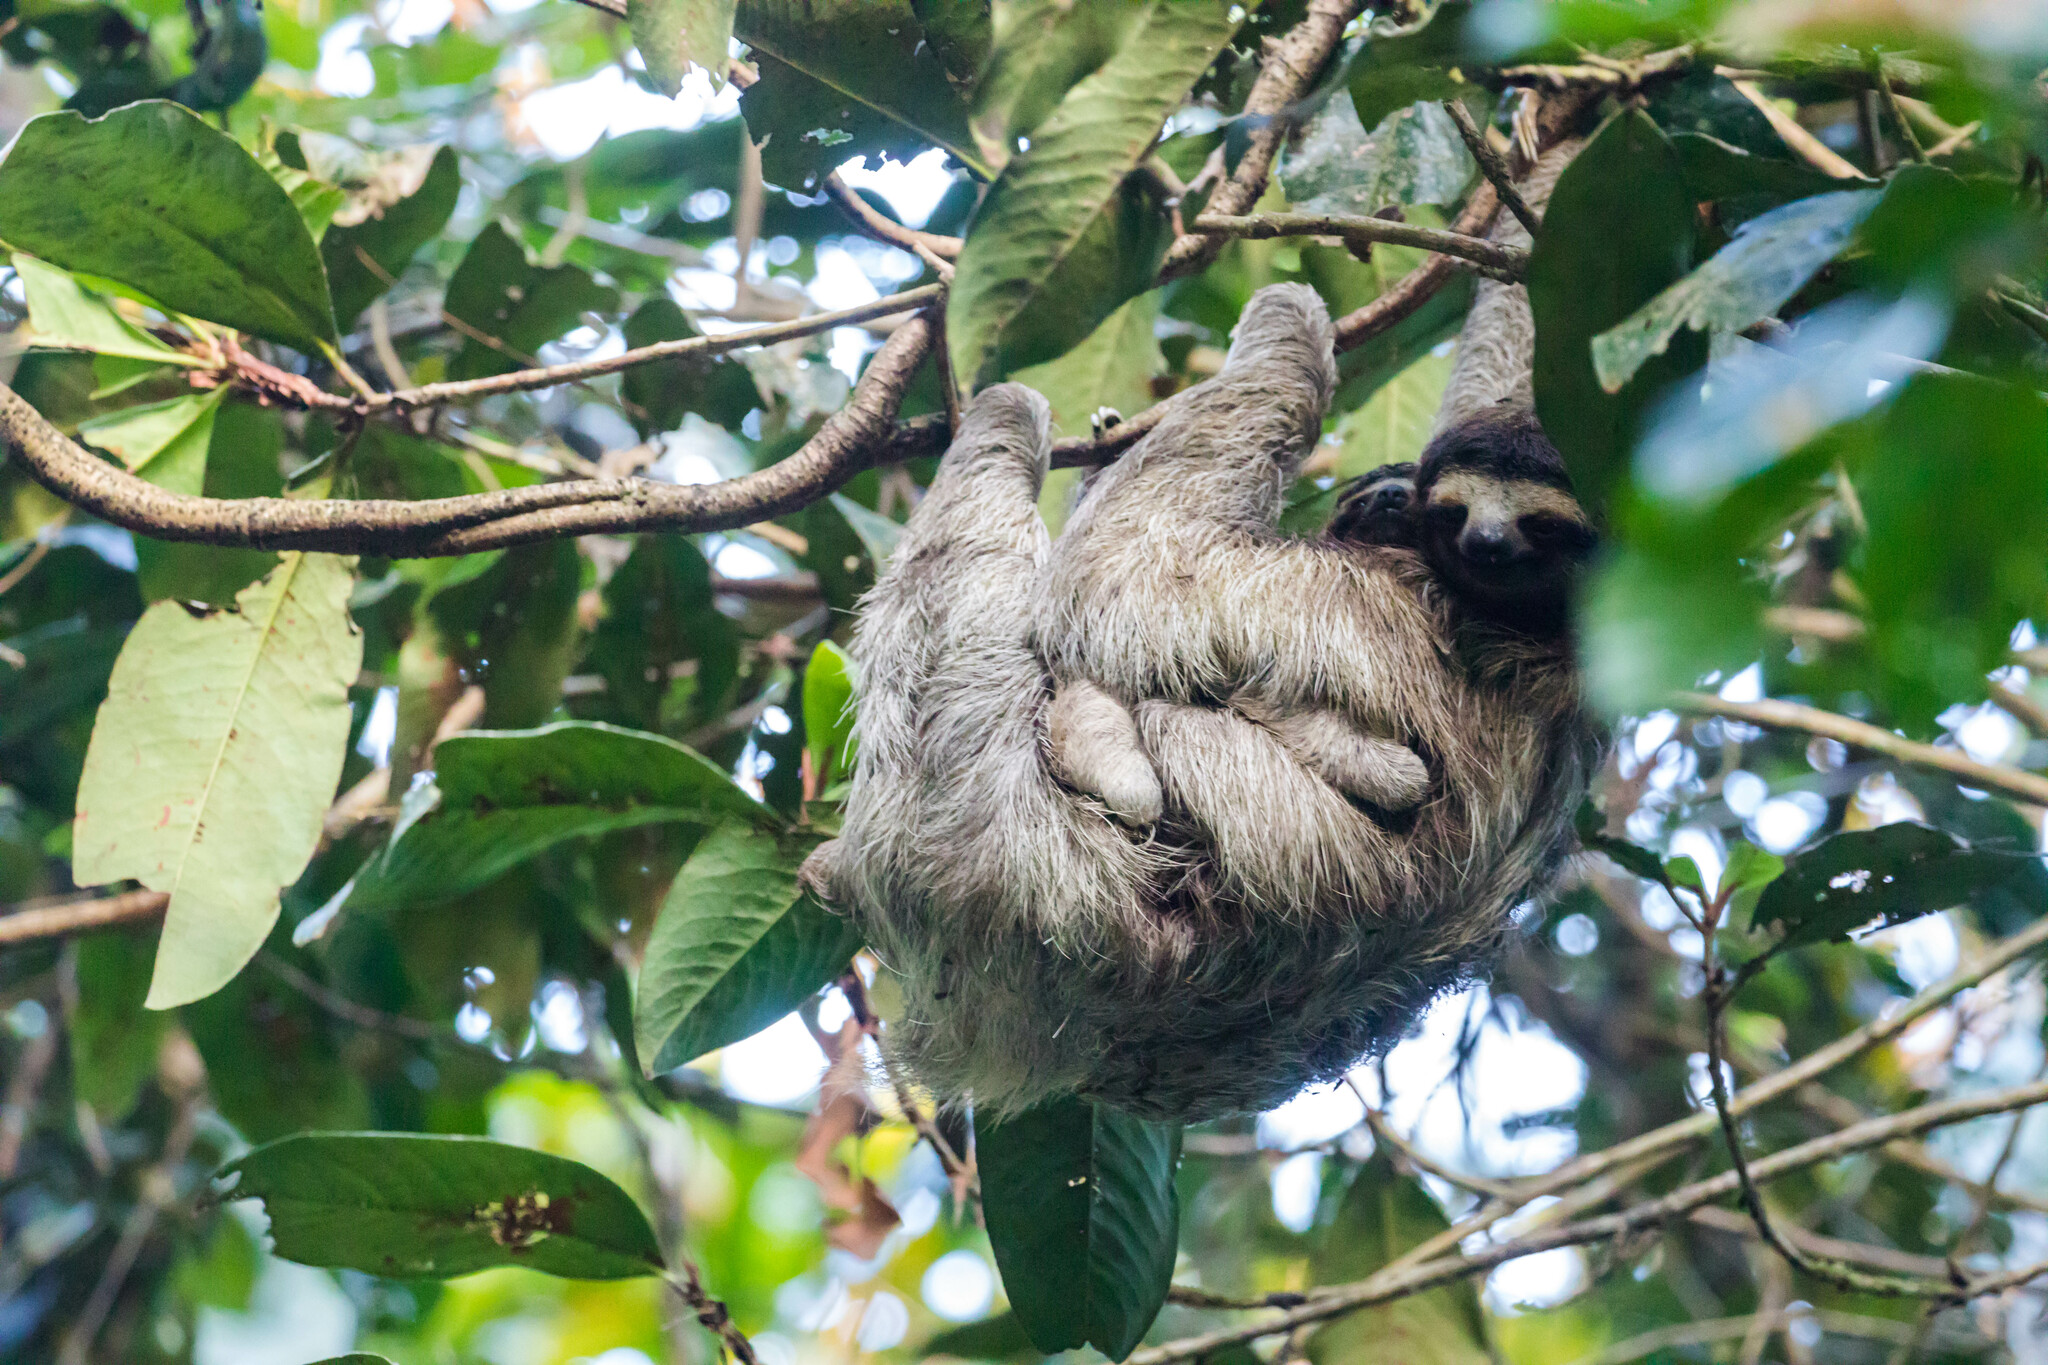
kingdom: Animalia
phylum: Chordata
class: Mammalia
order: Pilosa
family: Bradypodidae
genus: Bradypus
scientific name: Bradypus variegatus
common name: Brown-throated three-toed sloth
